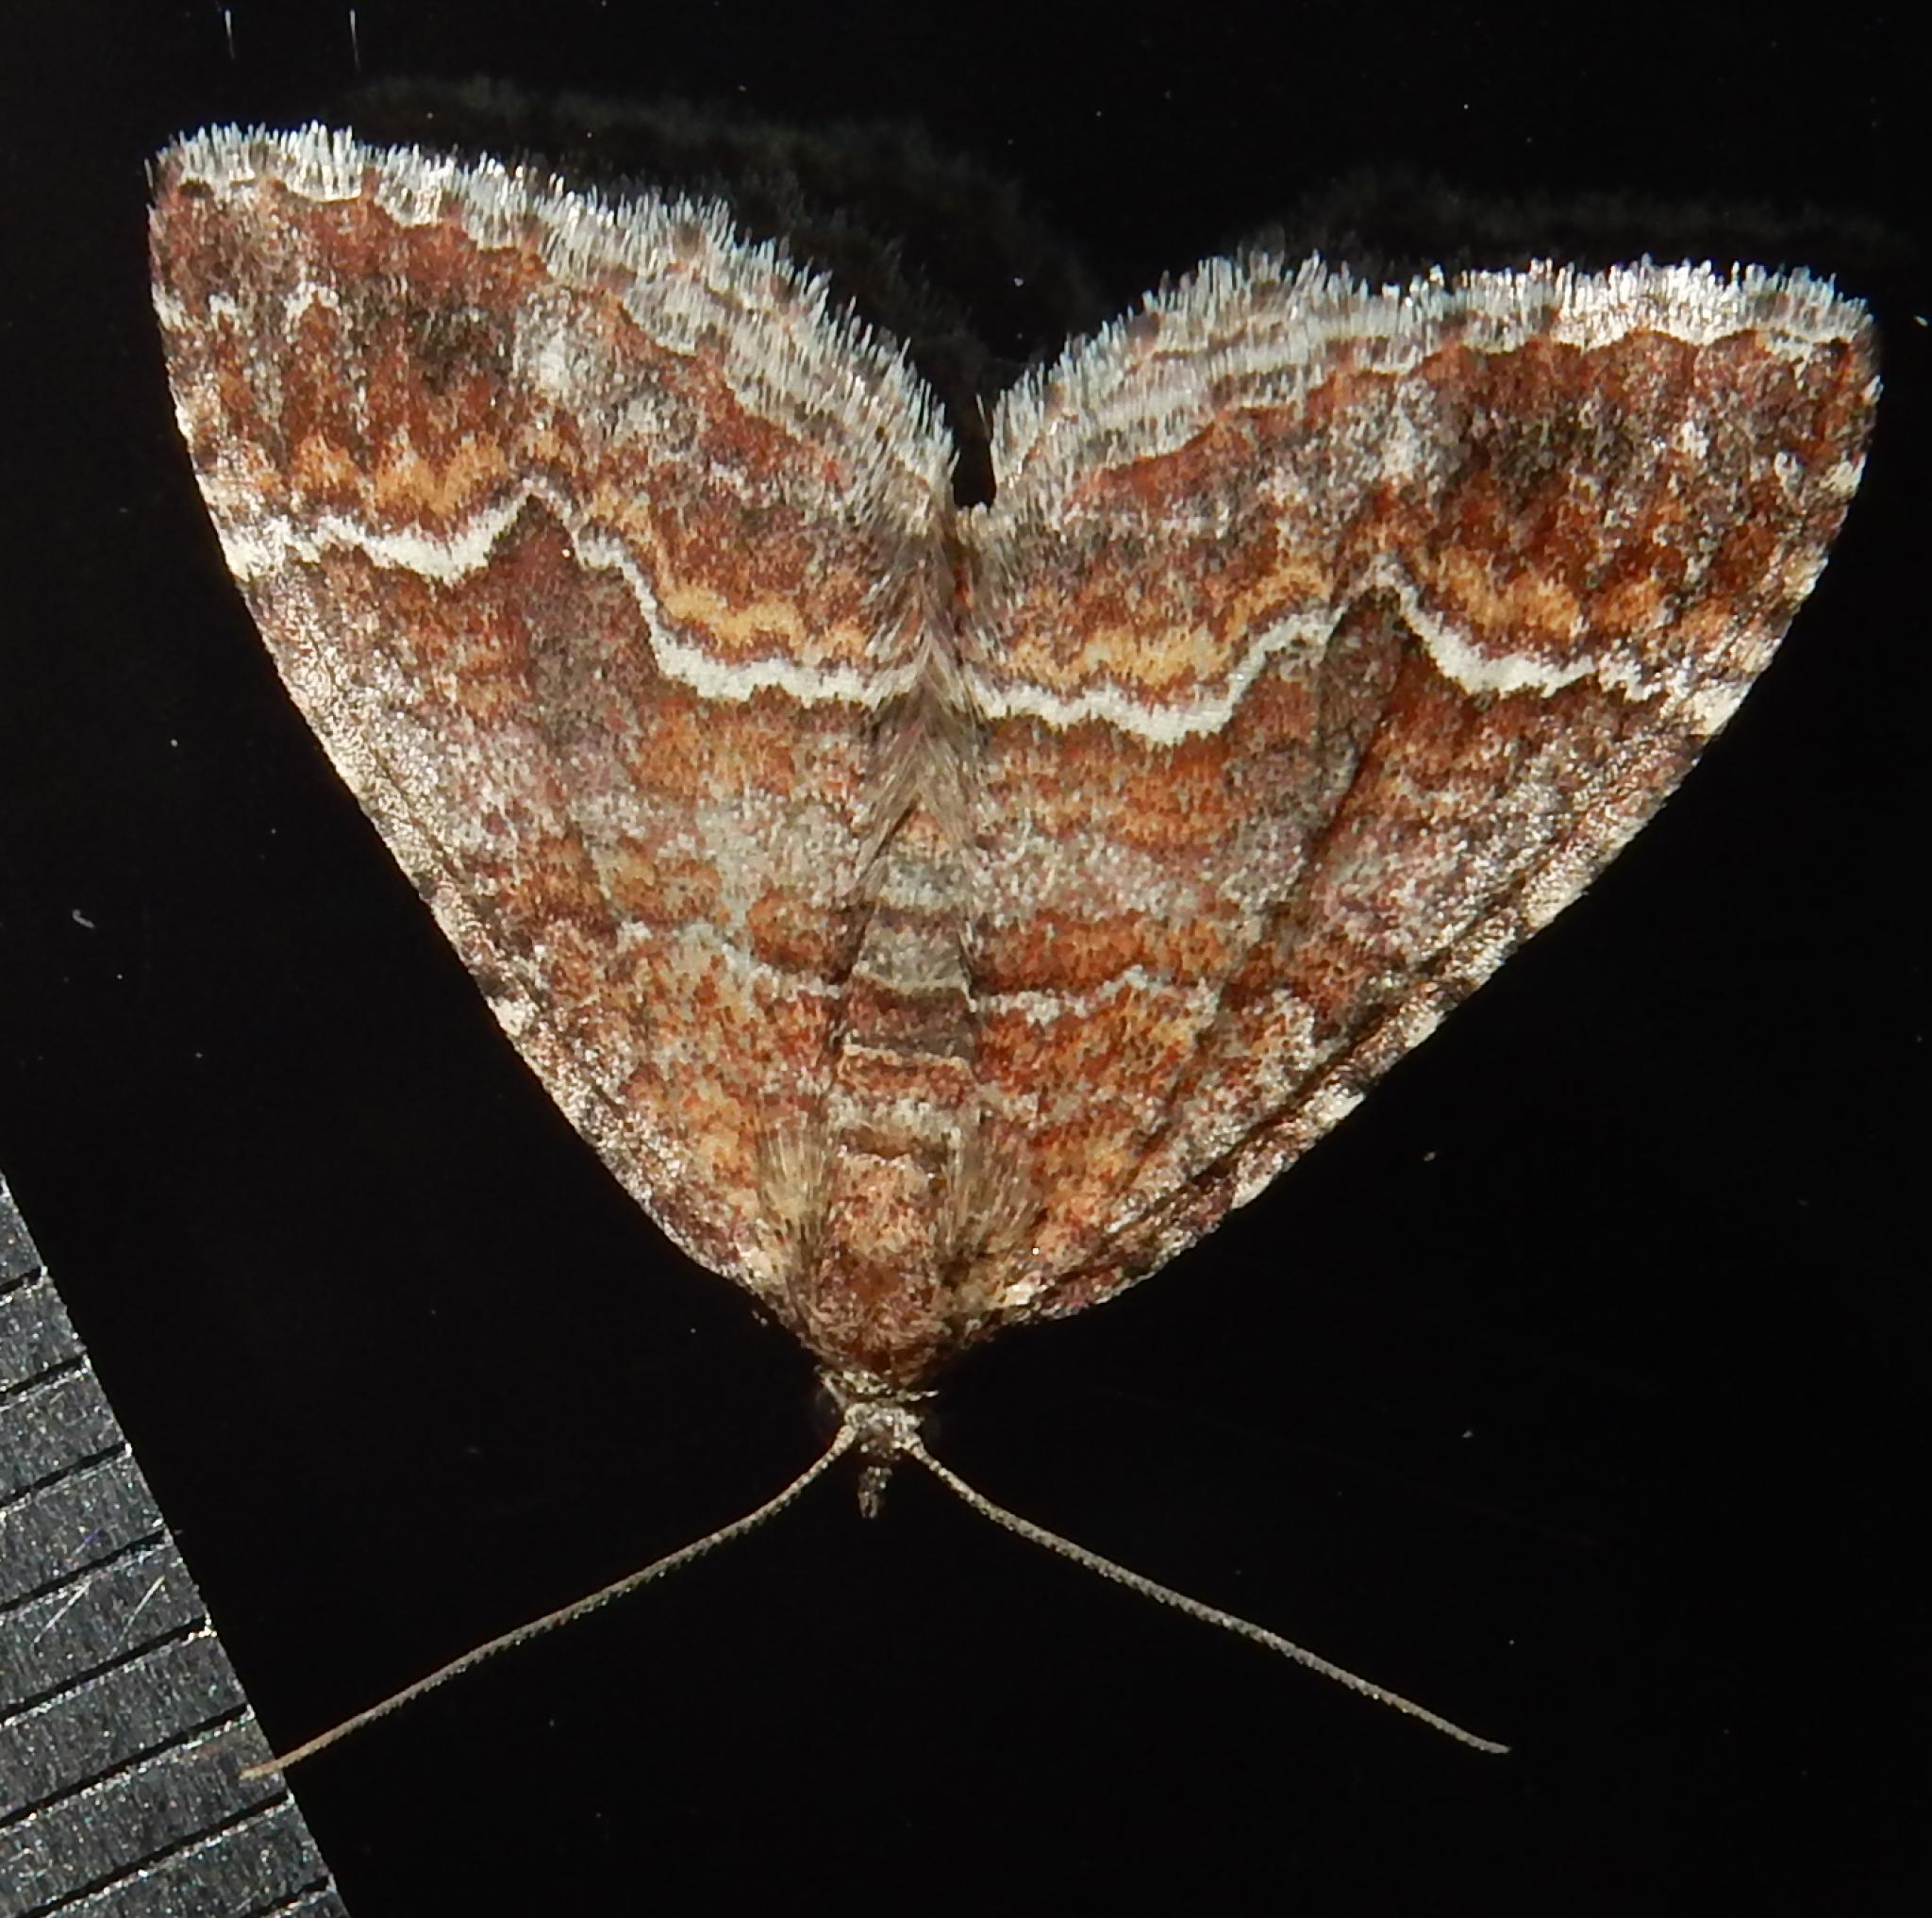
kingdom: Animalia
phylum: Arthropoda
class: Insecta
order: Lepidoptera
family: Geometridae
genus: Mimoclystia
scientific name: Mimoclystia tepescens
